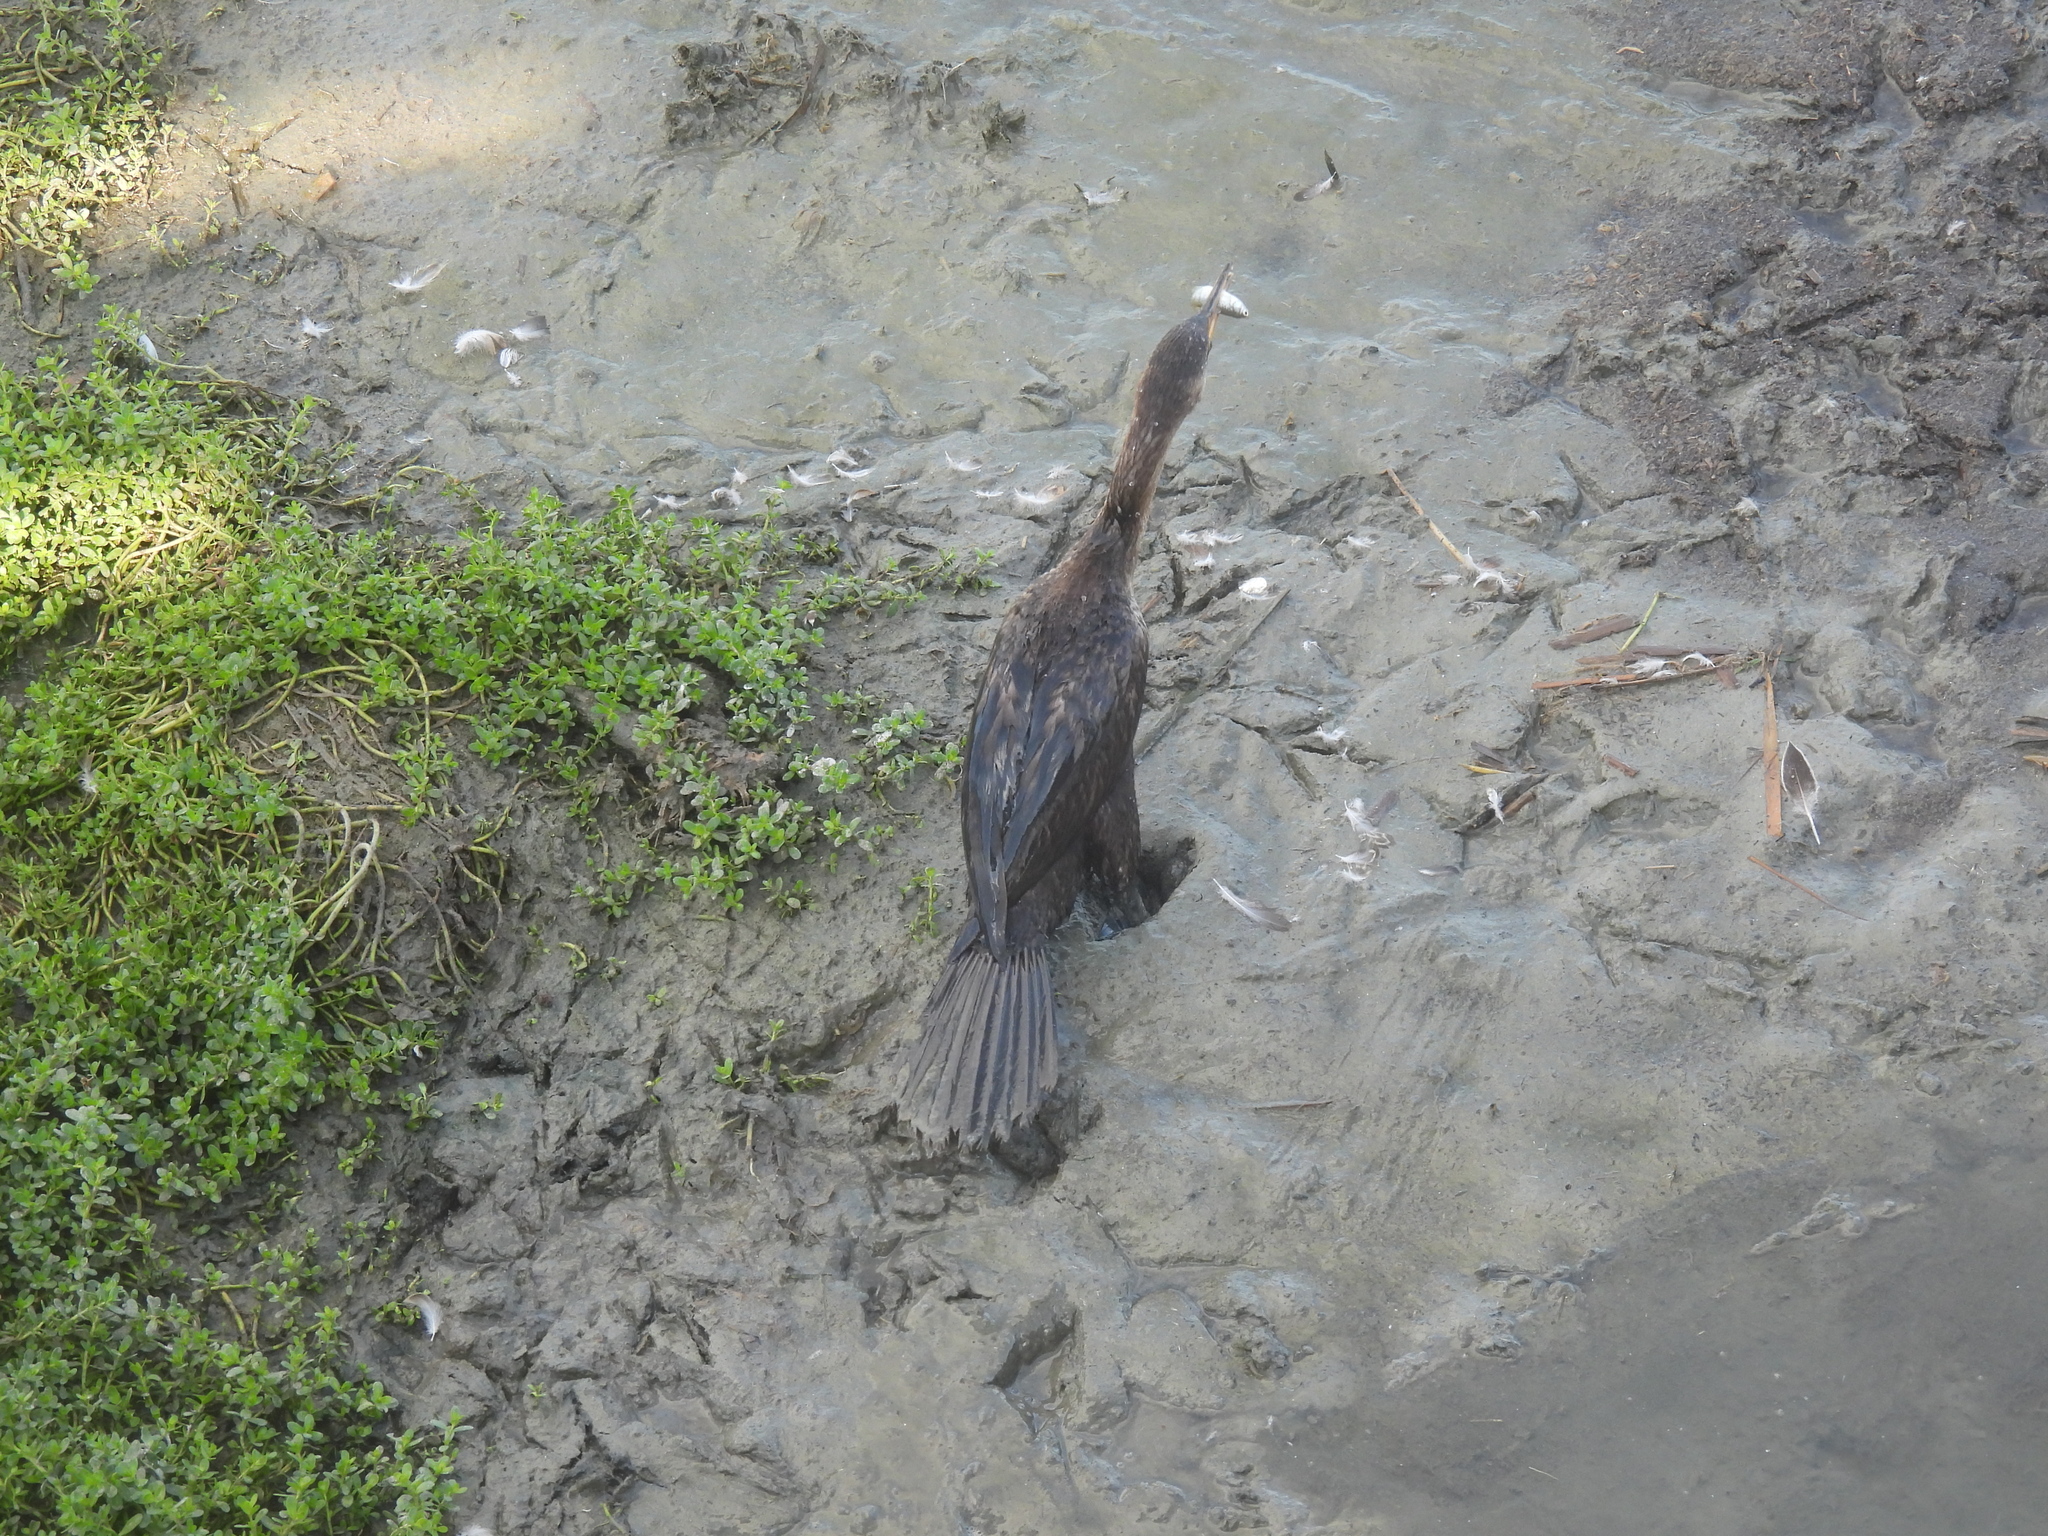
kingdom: Animalia
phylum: Chordata
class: Aves
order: Suliformes
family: Phalacrocoracidae
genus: Phalacrocorax
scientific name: Phalacrocorax brasilianus
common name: Neotropic cormorant
